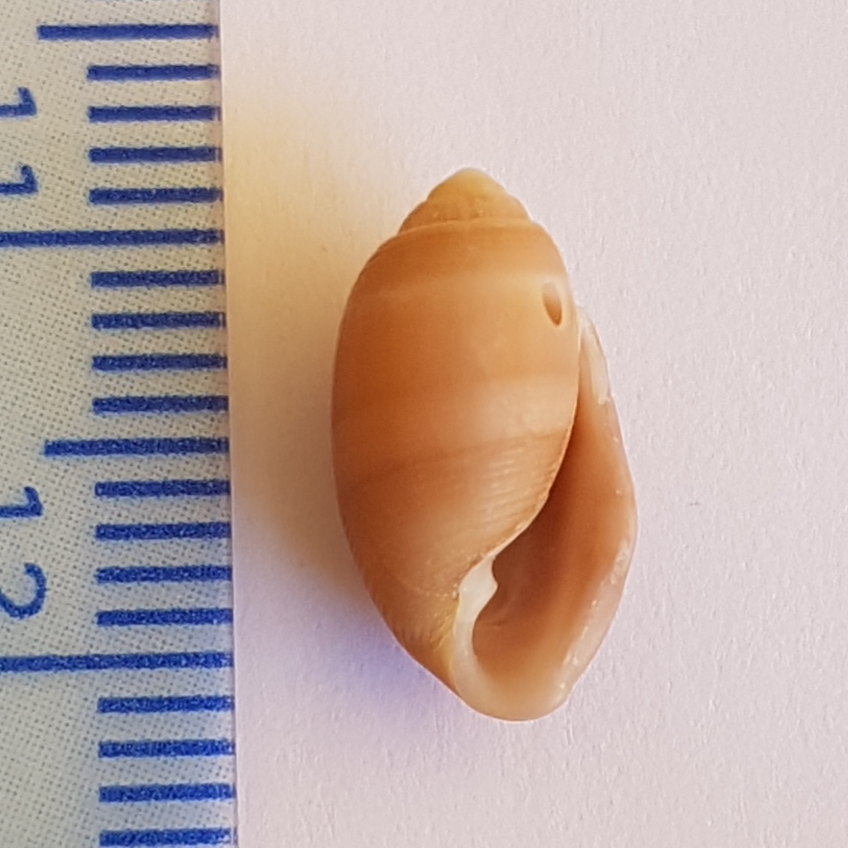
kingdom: Animalia
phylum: Mollusca
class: Gastropoda
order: Cephalaspidea
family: Acteonidae
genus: Acteon
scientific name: Acteon tornatilis
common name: European acteon
